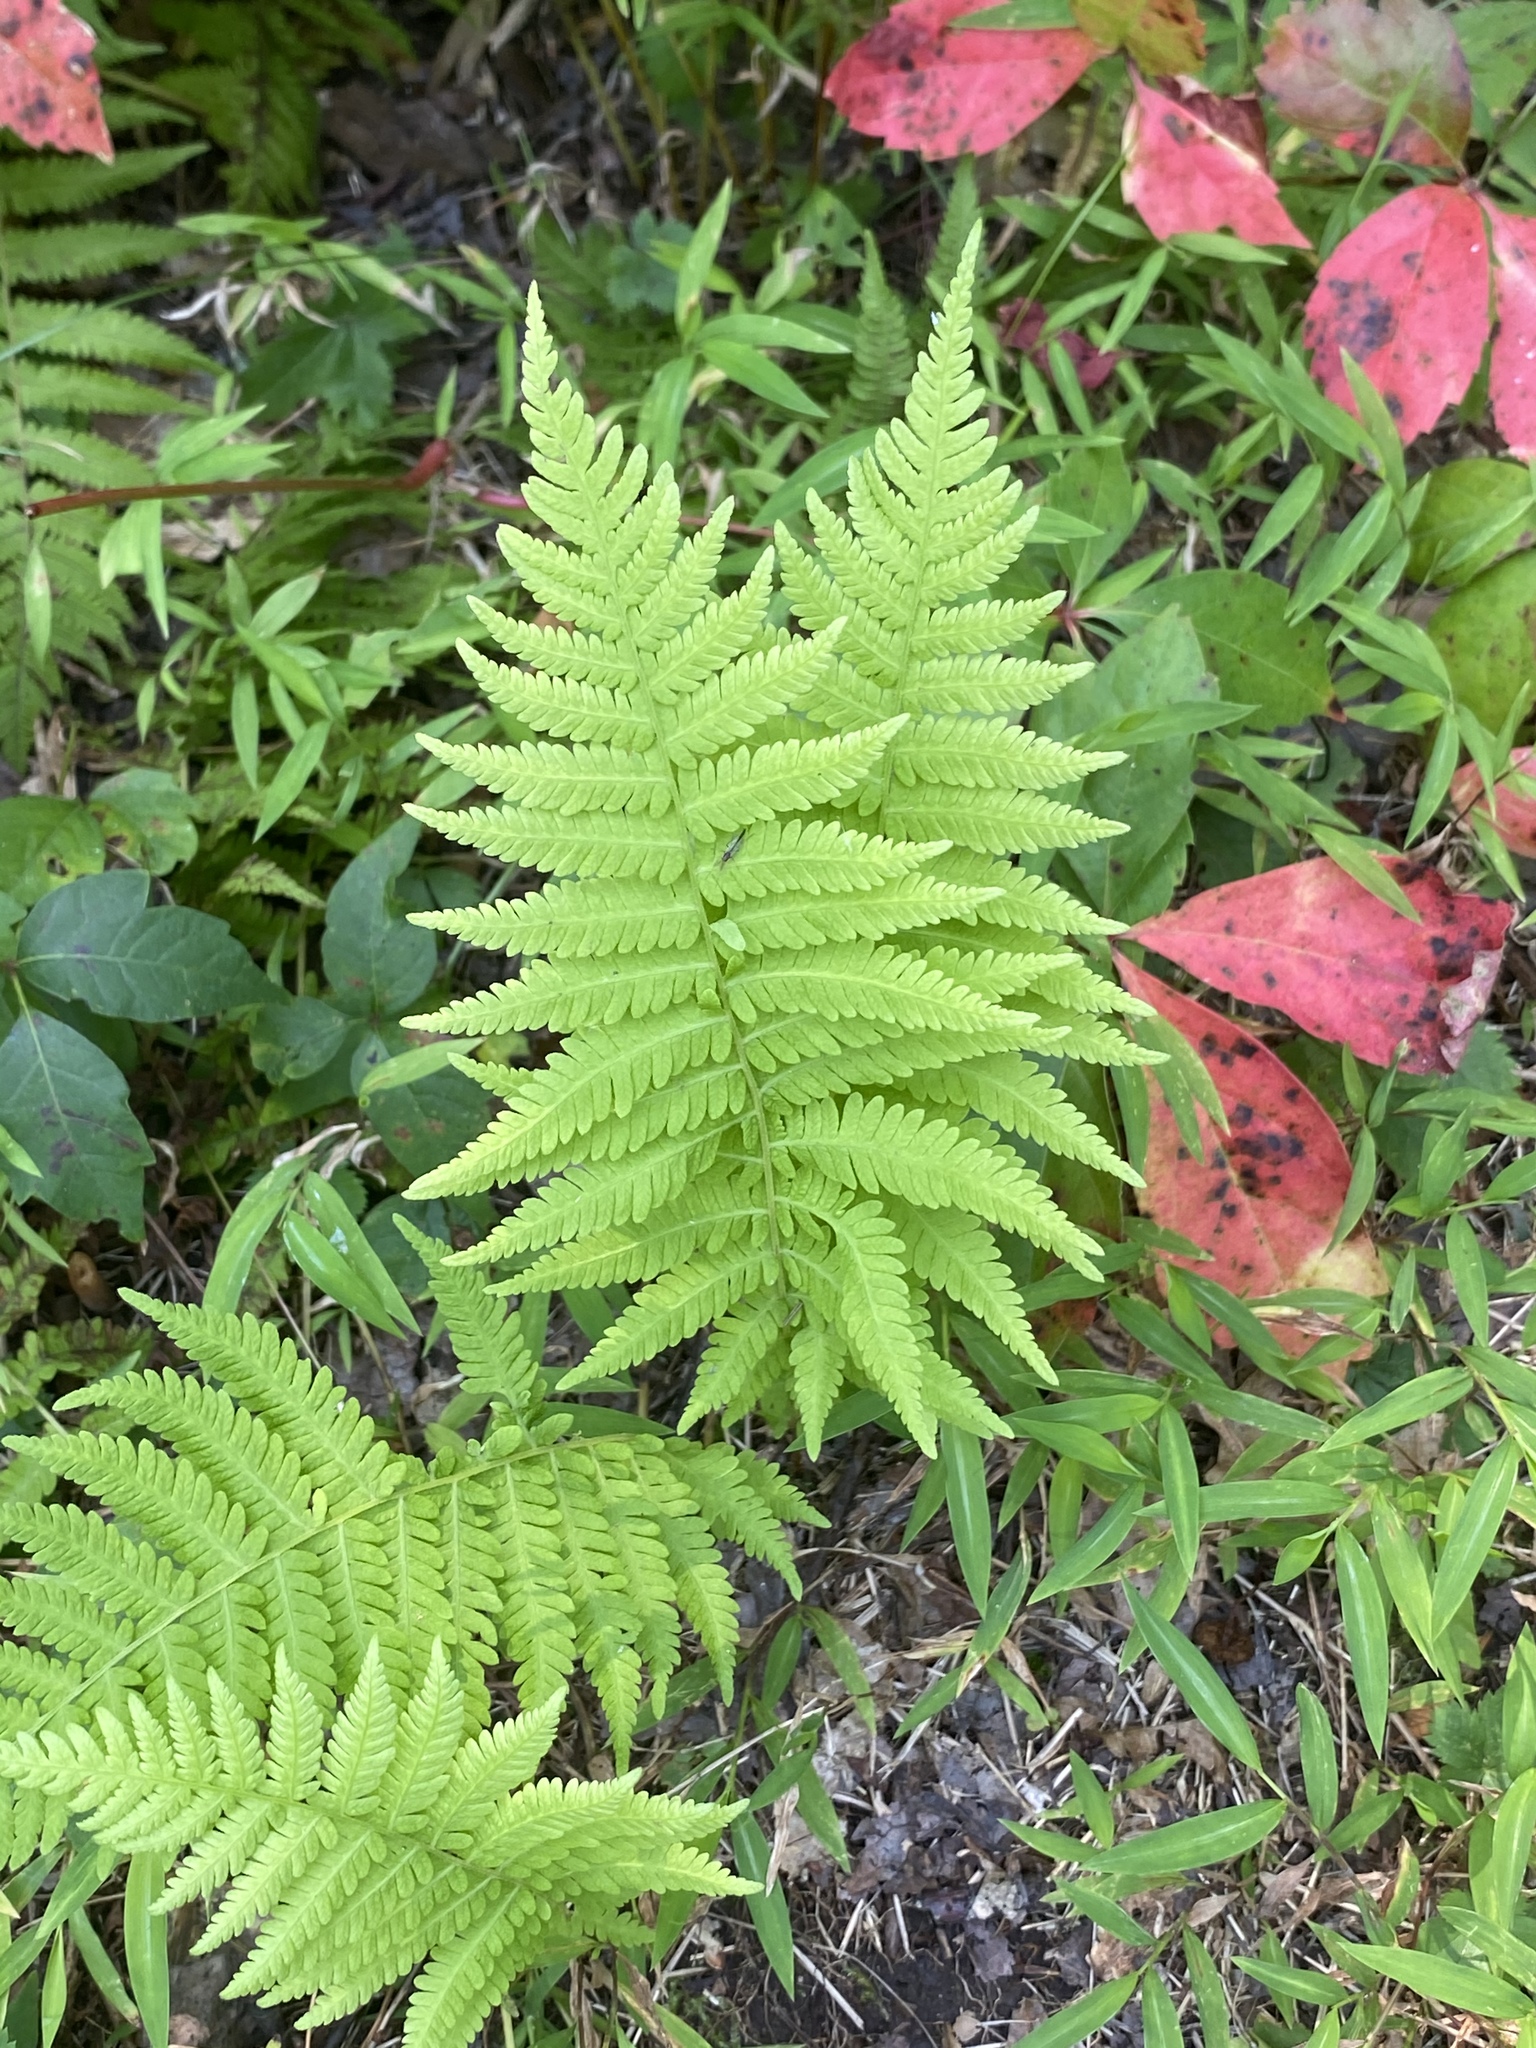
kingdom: Plantae
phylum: Tracheophyta
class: Polypodiopsida
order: Polypodiales
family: Thelypteridaceae
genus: Amauropelta
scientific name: Amauropelta noveboracensis
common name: New york fern
